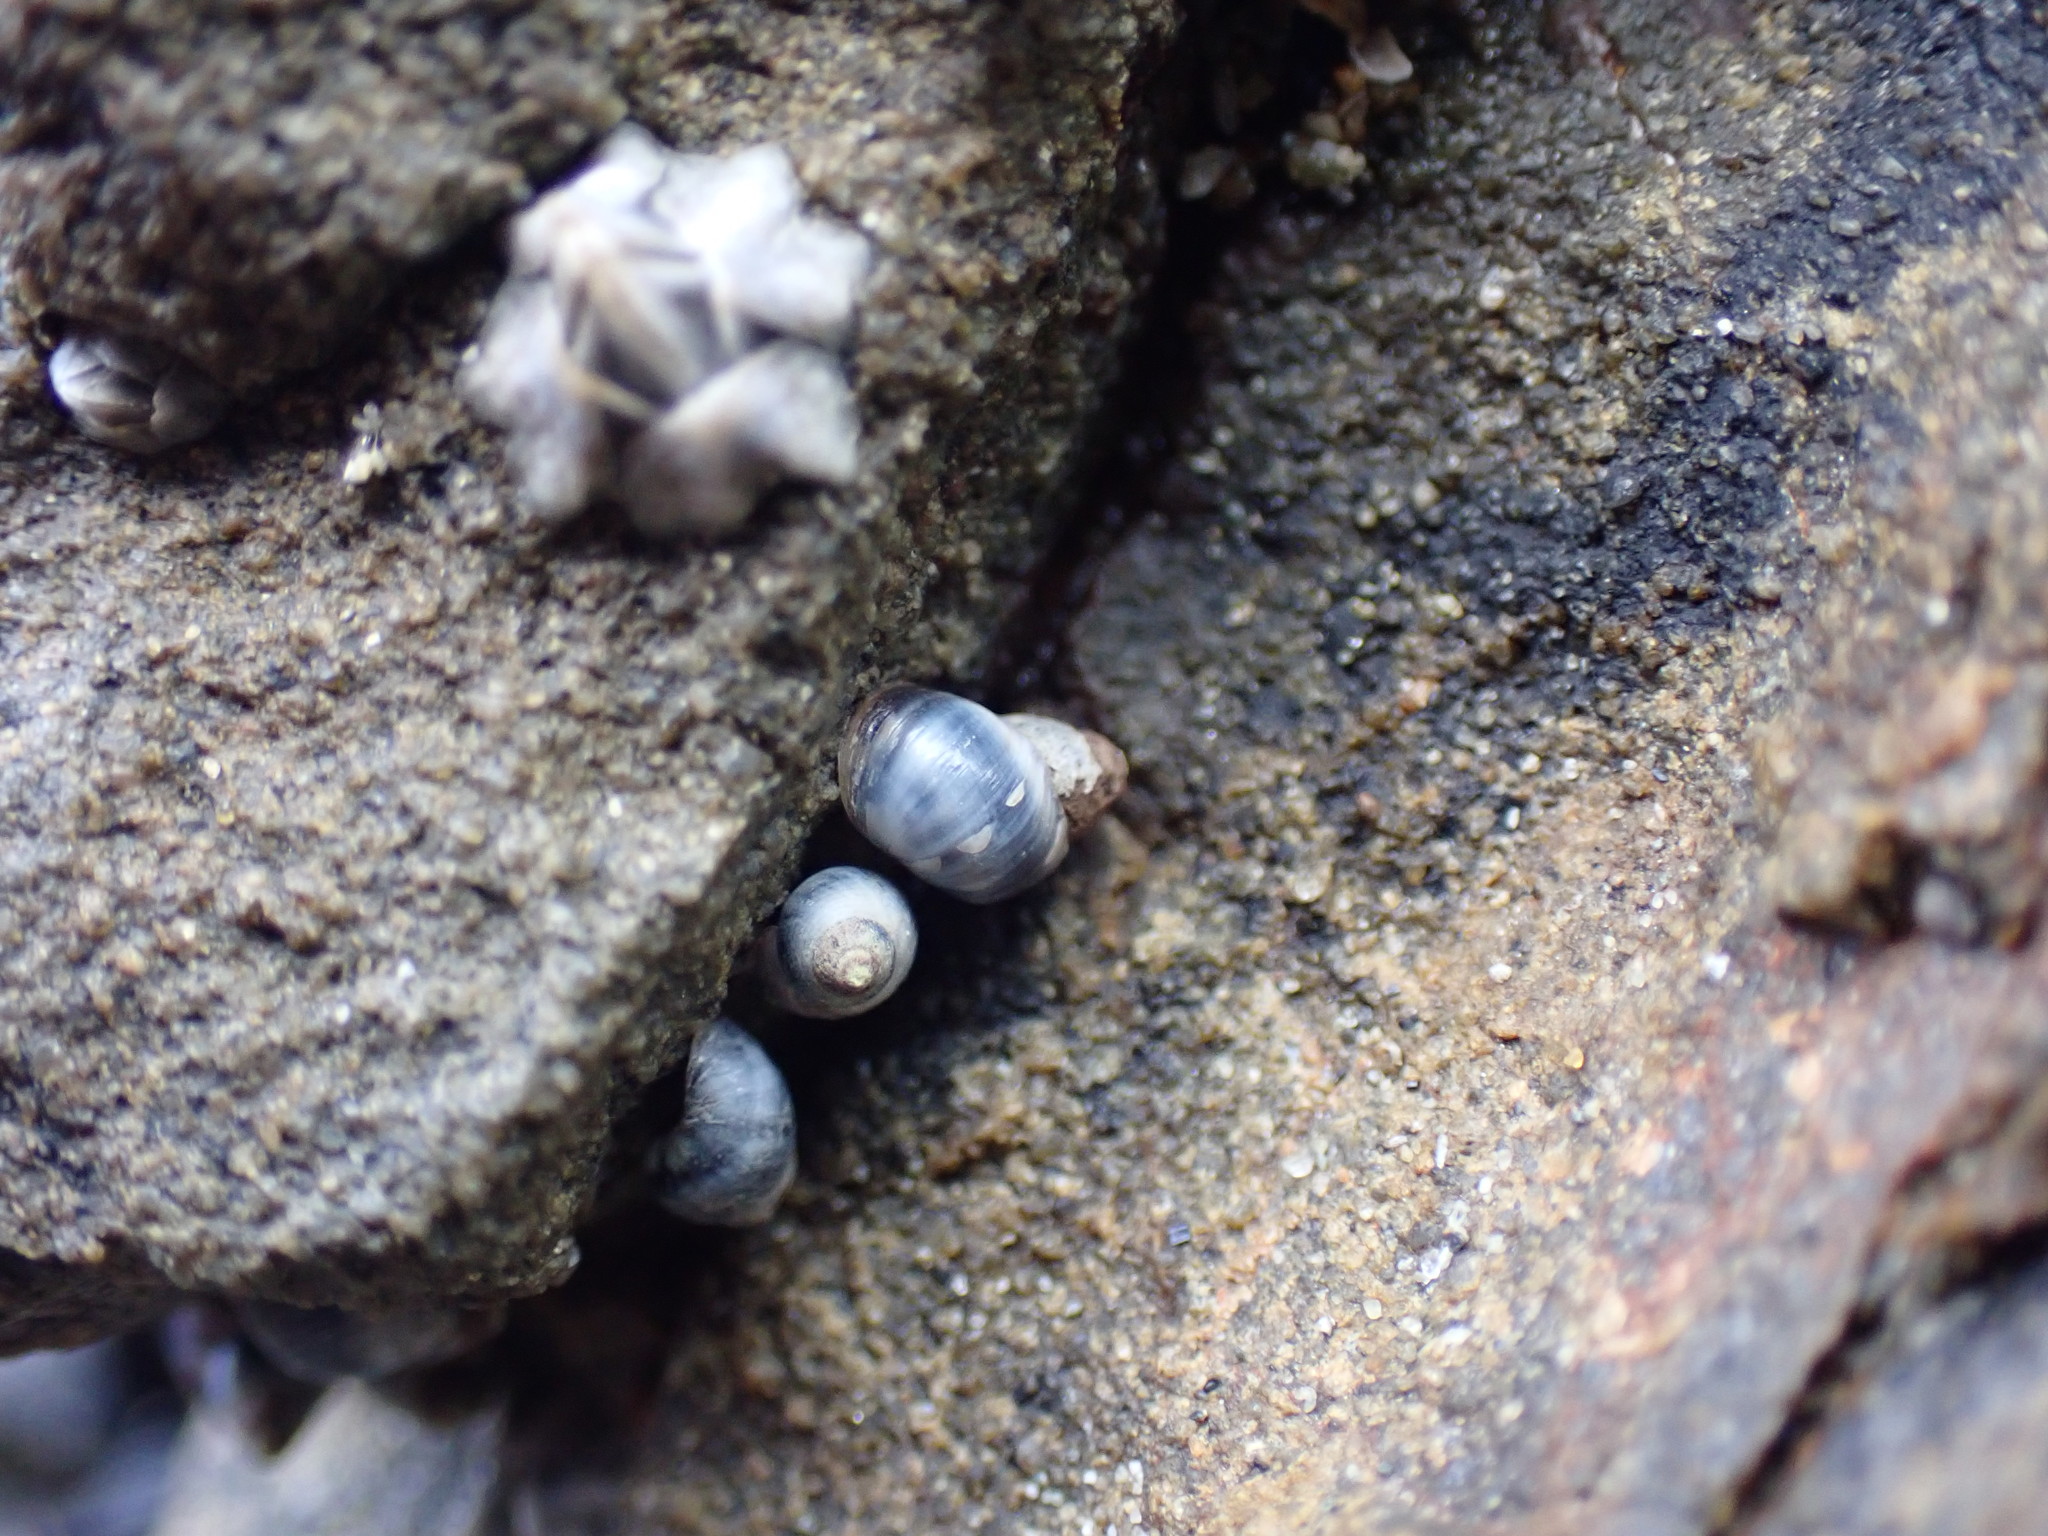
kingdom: Animalia
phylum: Mollusca
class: Gastropoda
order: Littorinimorpha
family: Littorinidae
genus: Austrolittorina
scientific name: Austrolittorina antipodum
